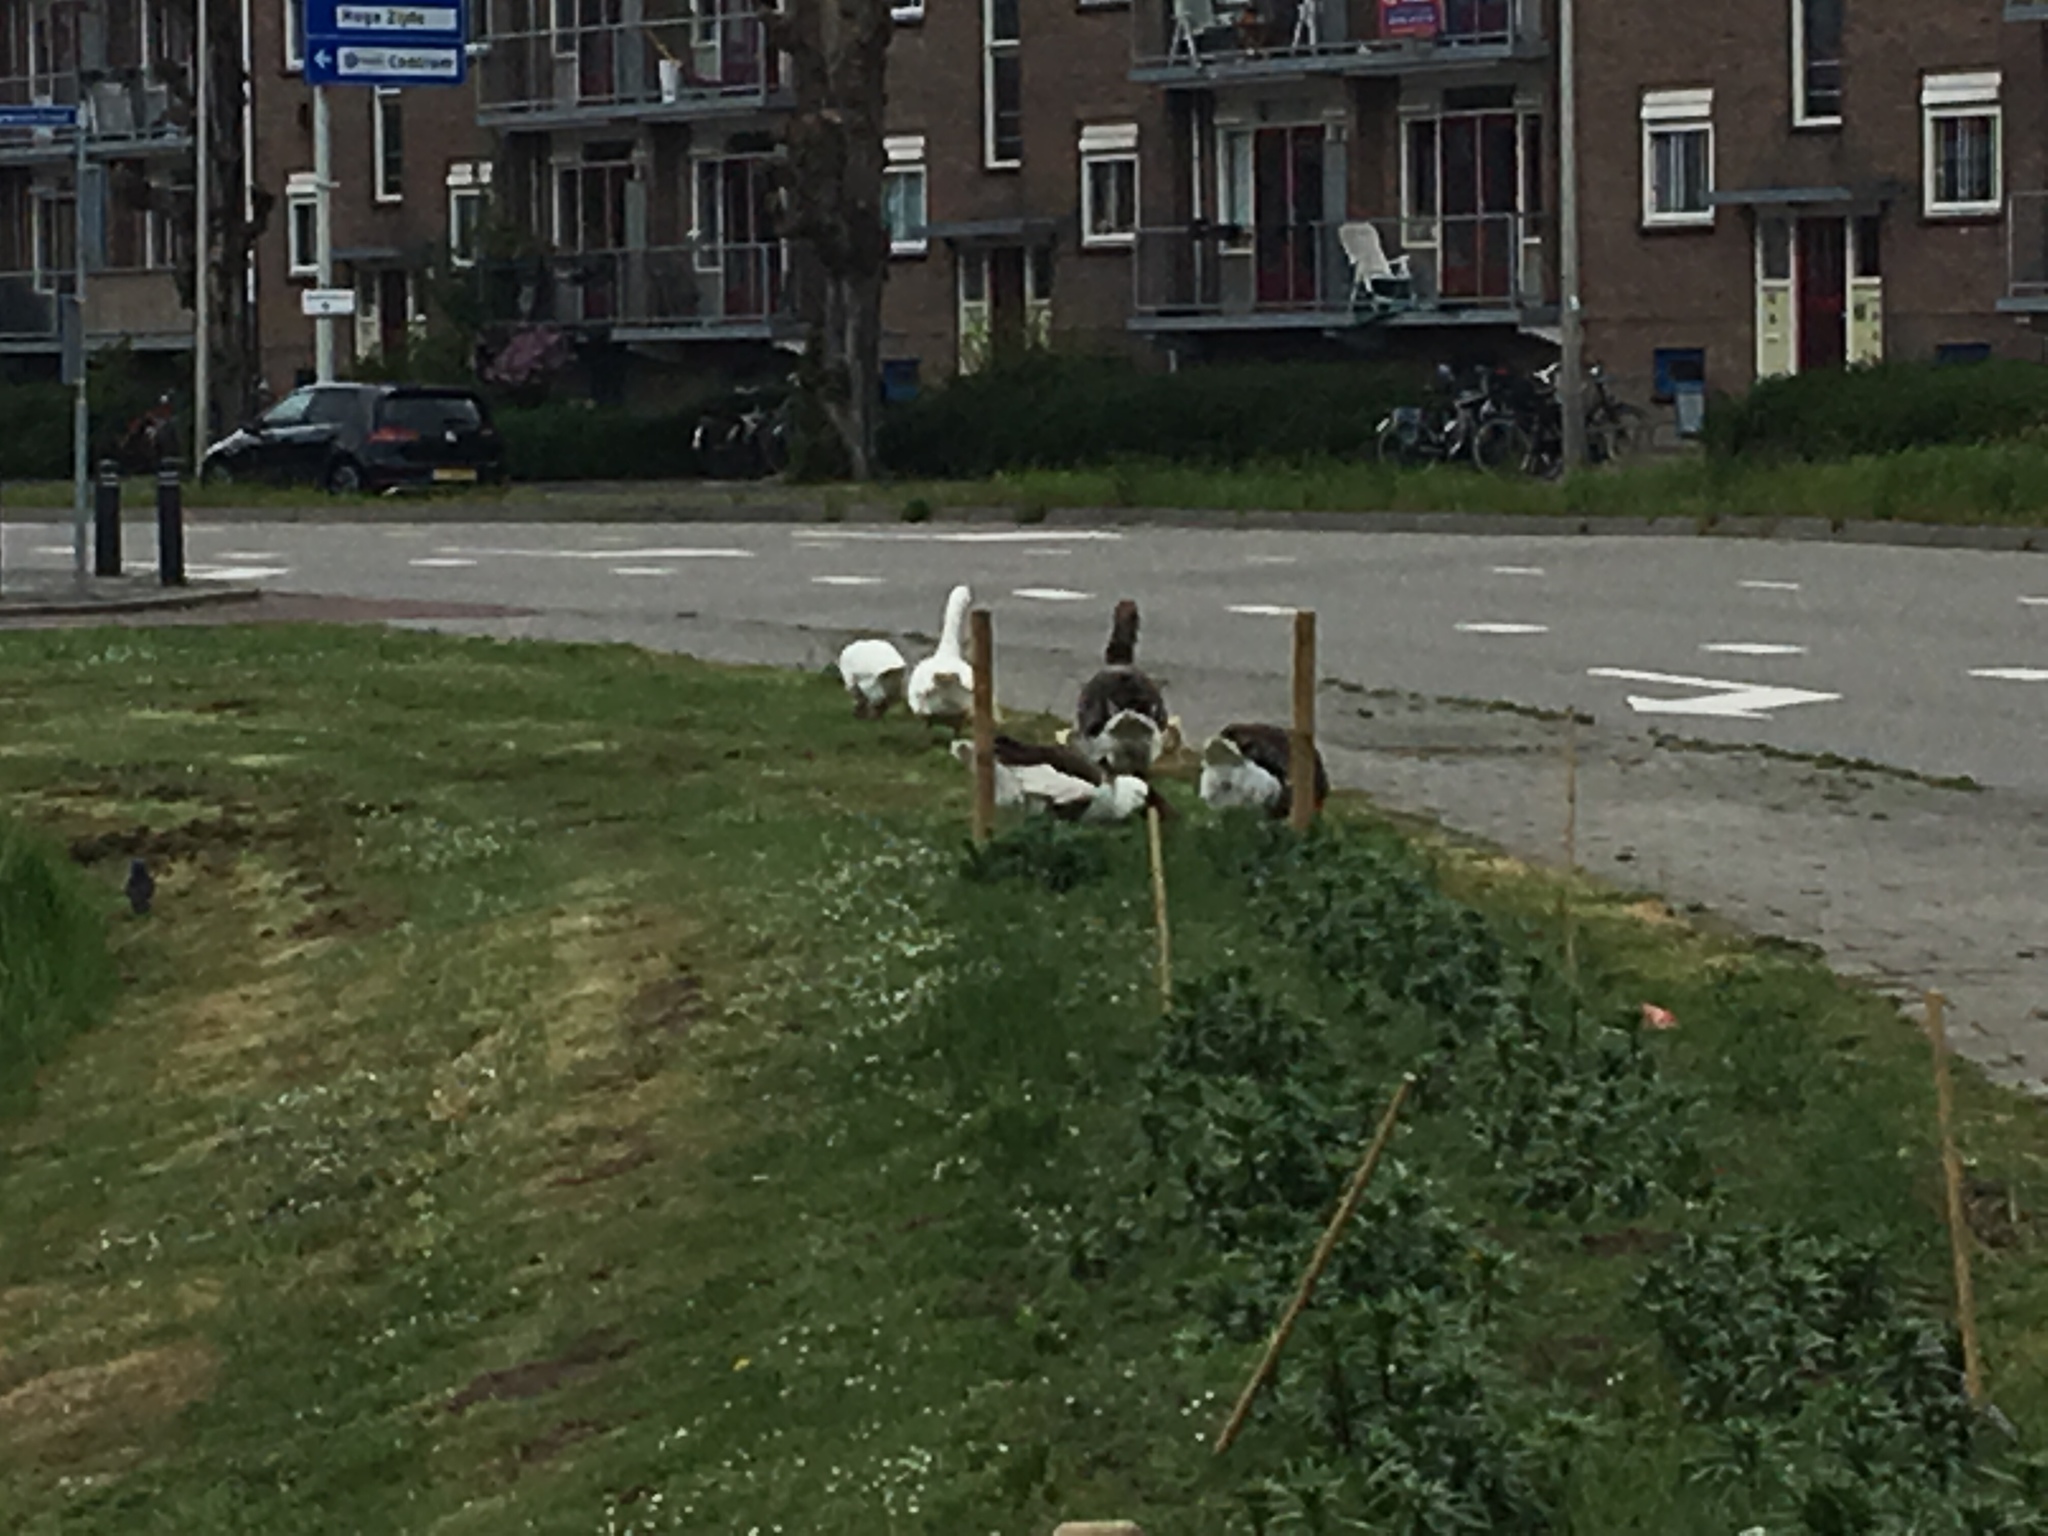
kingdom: Animalia
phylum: Chordata
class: Aves
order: Anseriformes
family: Anatidae
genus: Anser
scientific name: Anser anser
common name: Greylag goose
